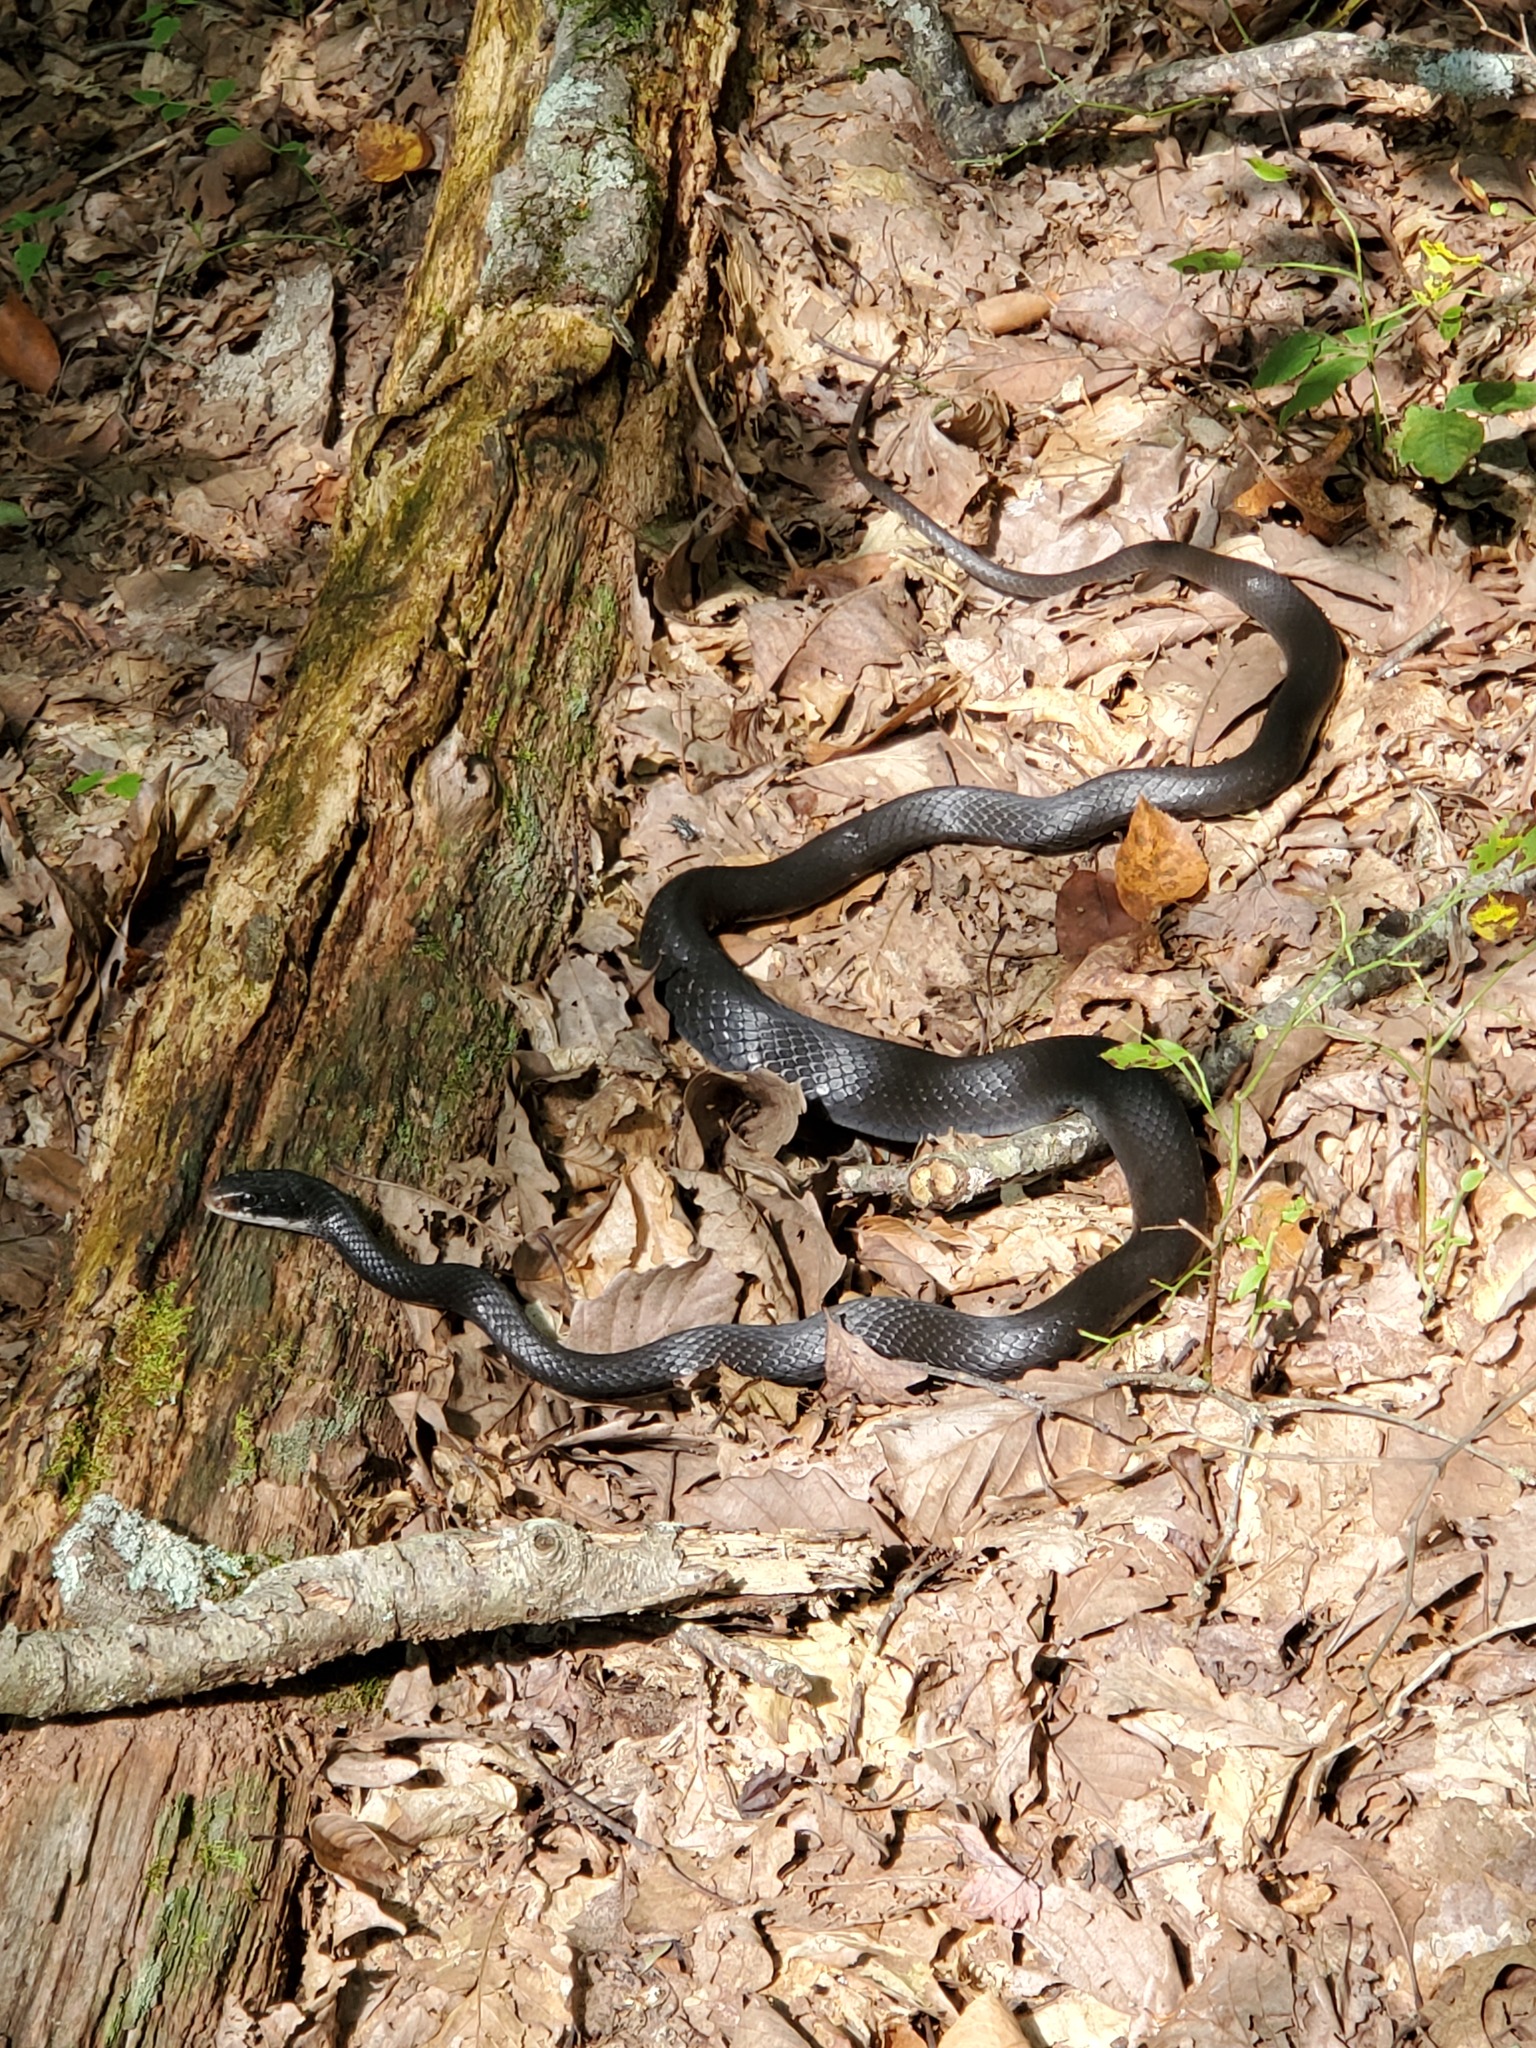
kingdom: Animalia
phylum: Chordata
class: Squamata
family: Colubridae
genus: Coluber
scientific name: Coluber constrictor
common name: Eastern racer
